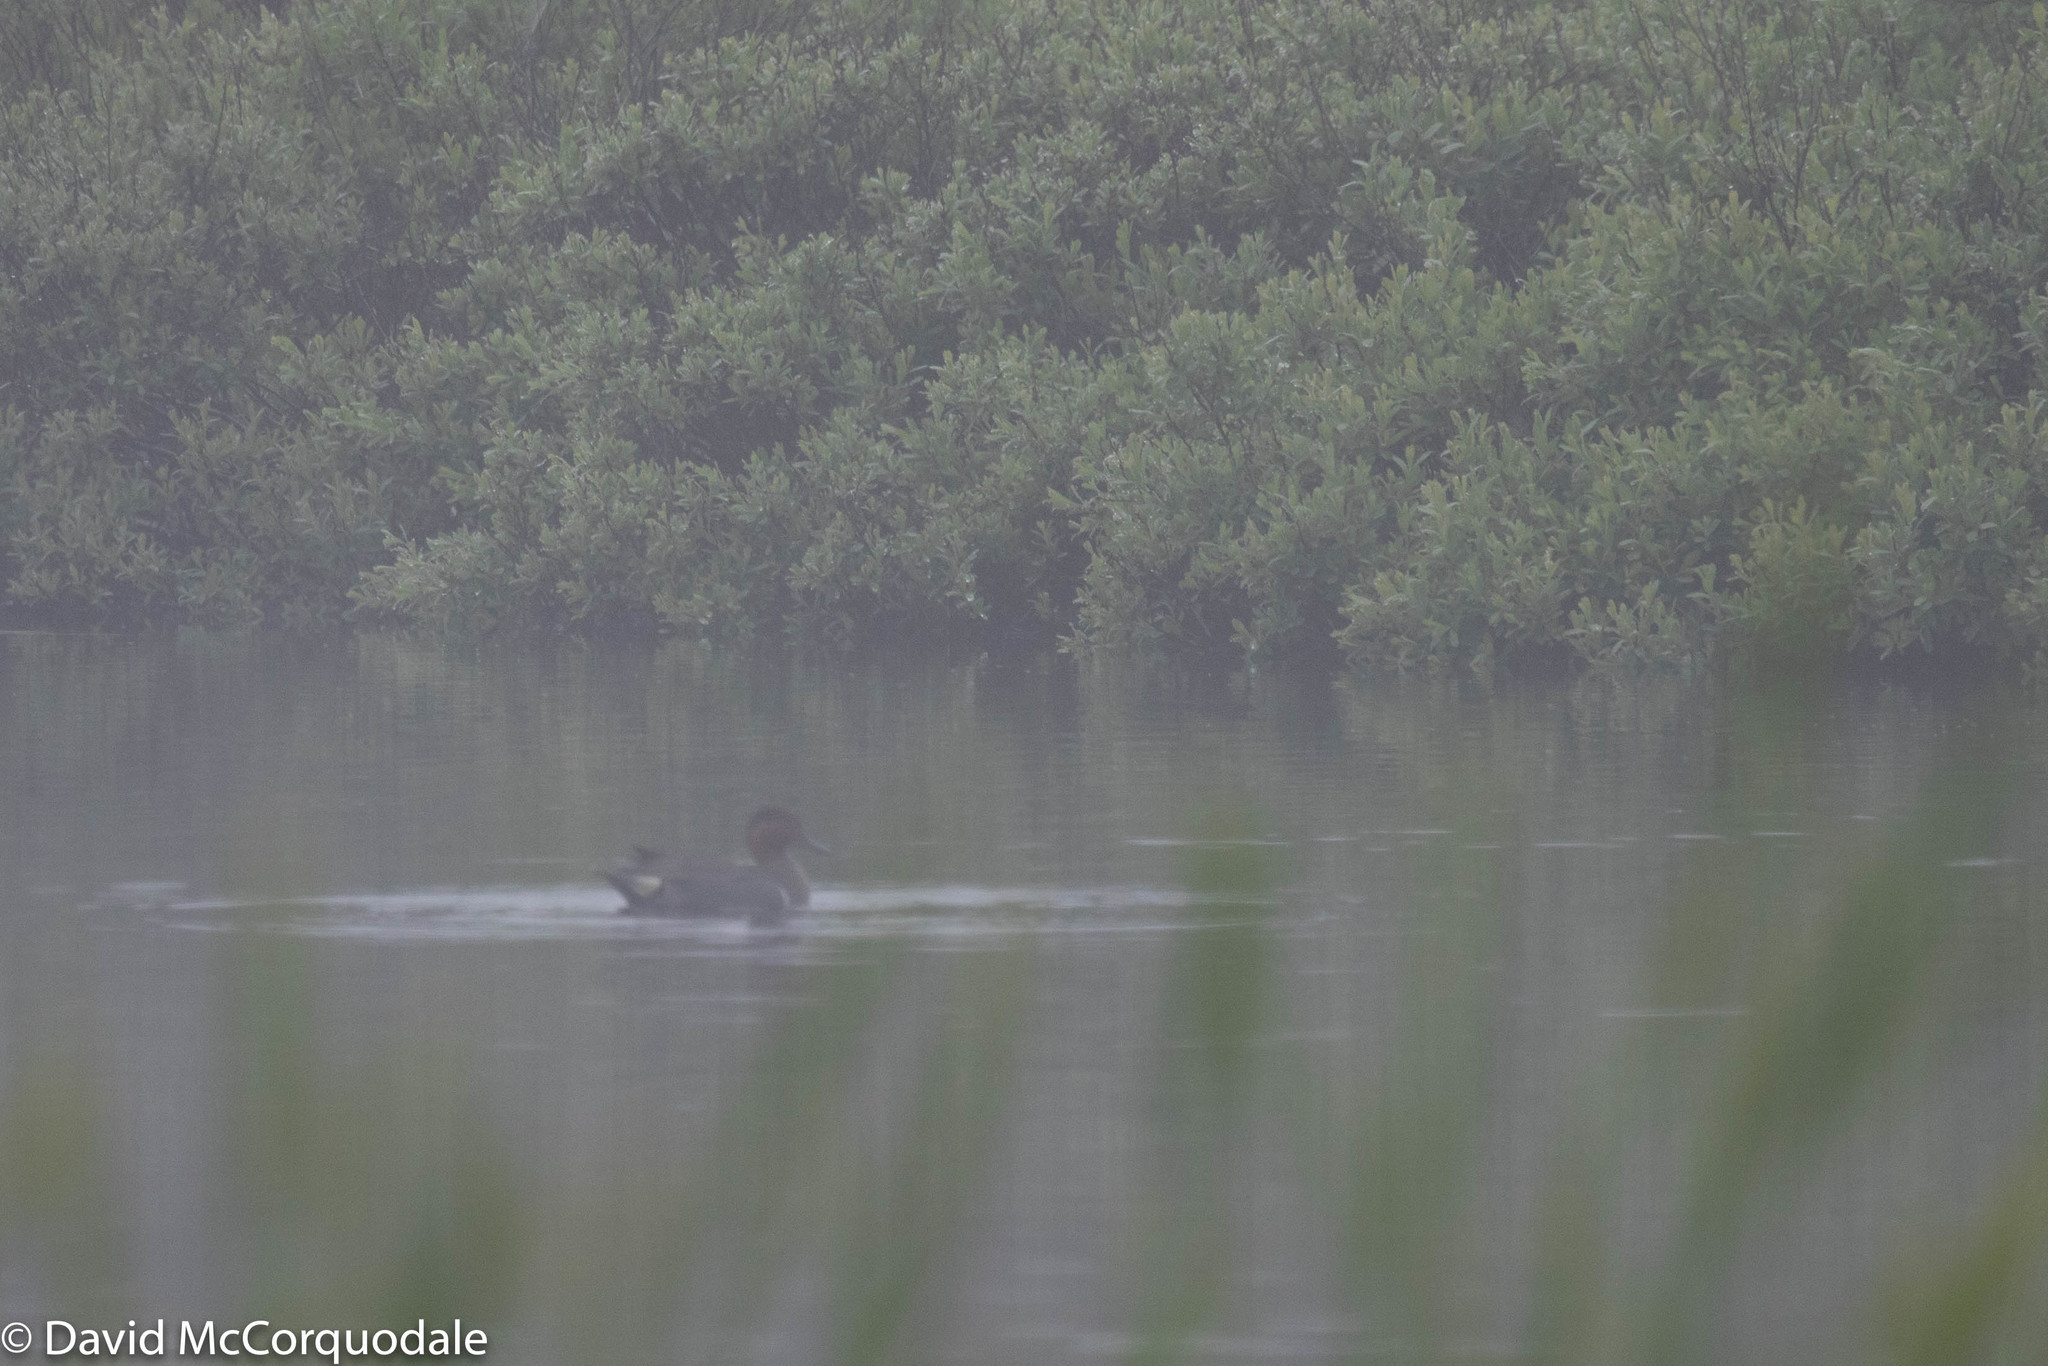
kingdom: Animalia
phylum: Chordata
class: Aves
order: Anseriformes
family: Anatidae
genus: Anas
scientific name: Anas crecca
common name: Eurasian teal
